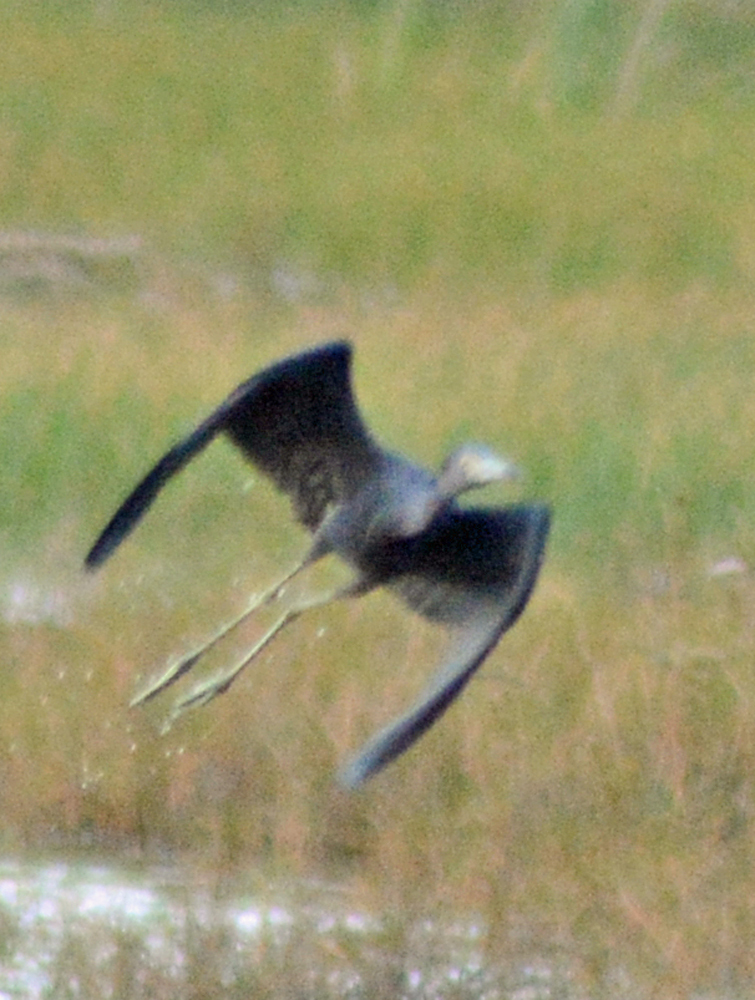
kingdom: Animalia
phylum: Chordata
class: Aves
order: Pelecaniformes
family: Ardeidae
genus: Egretta
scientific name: Egretta caerulea
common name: Little blue heron
